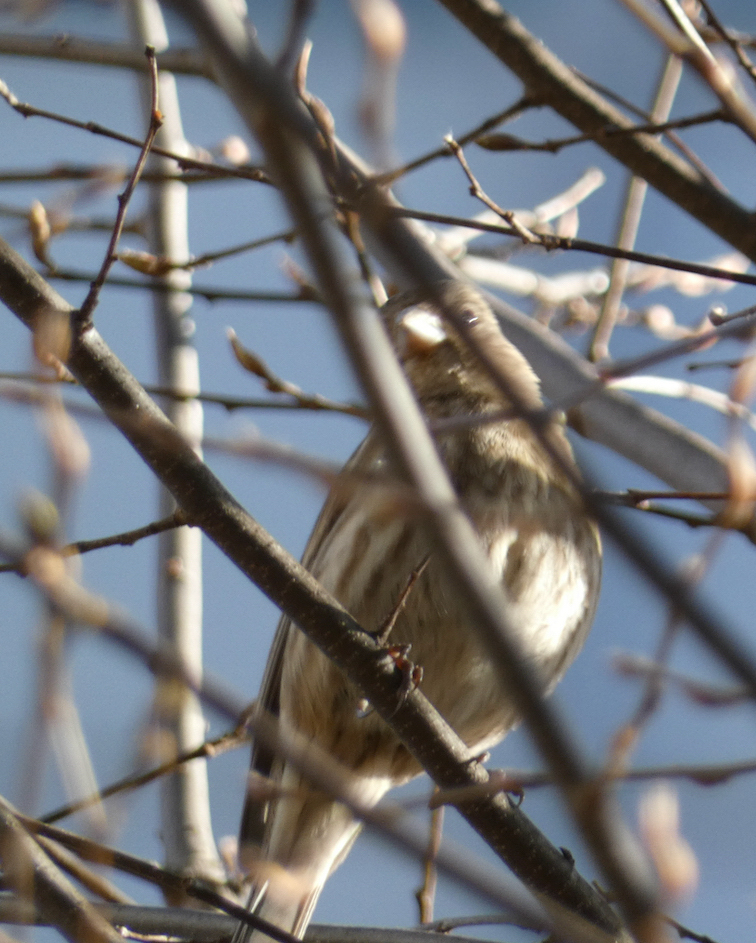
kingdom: Animalia
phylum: Chordata
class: Aves
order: Passeriformes
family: Fringillidae
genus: Haemorhous
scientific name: Haemorhous mexicanus
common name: House finch
